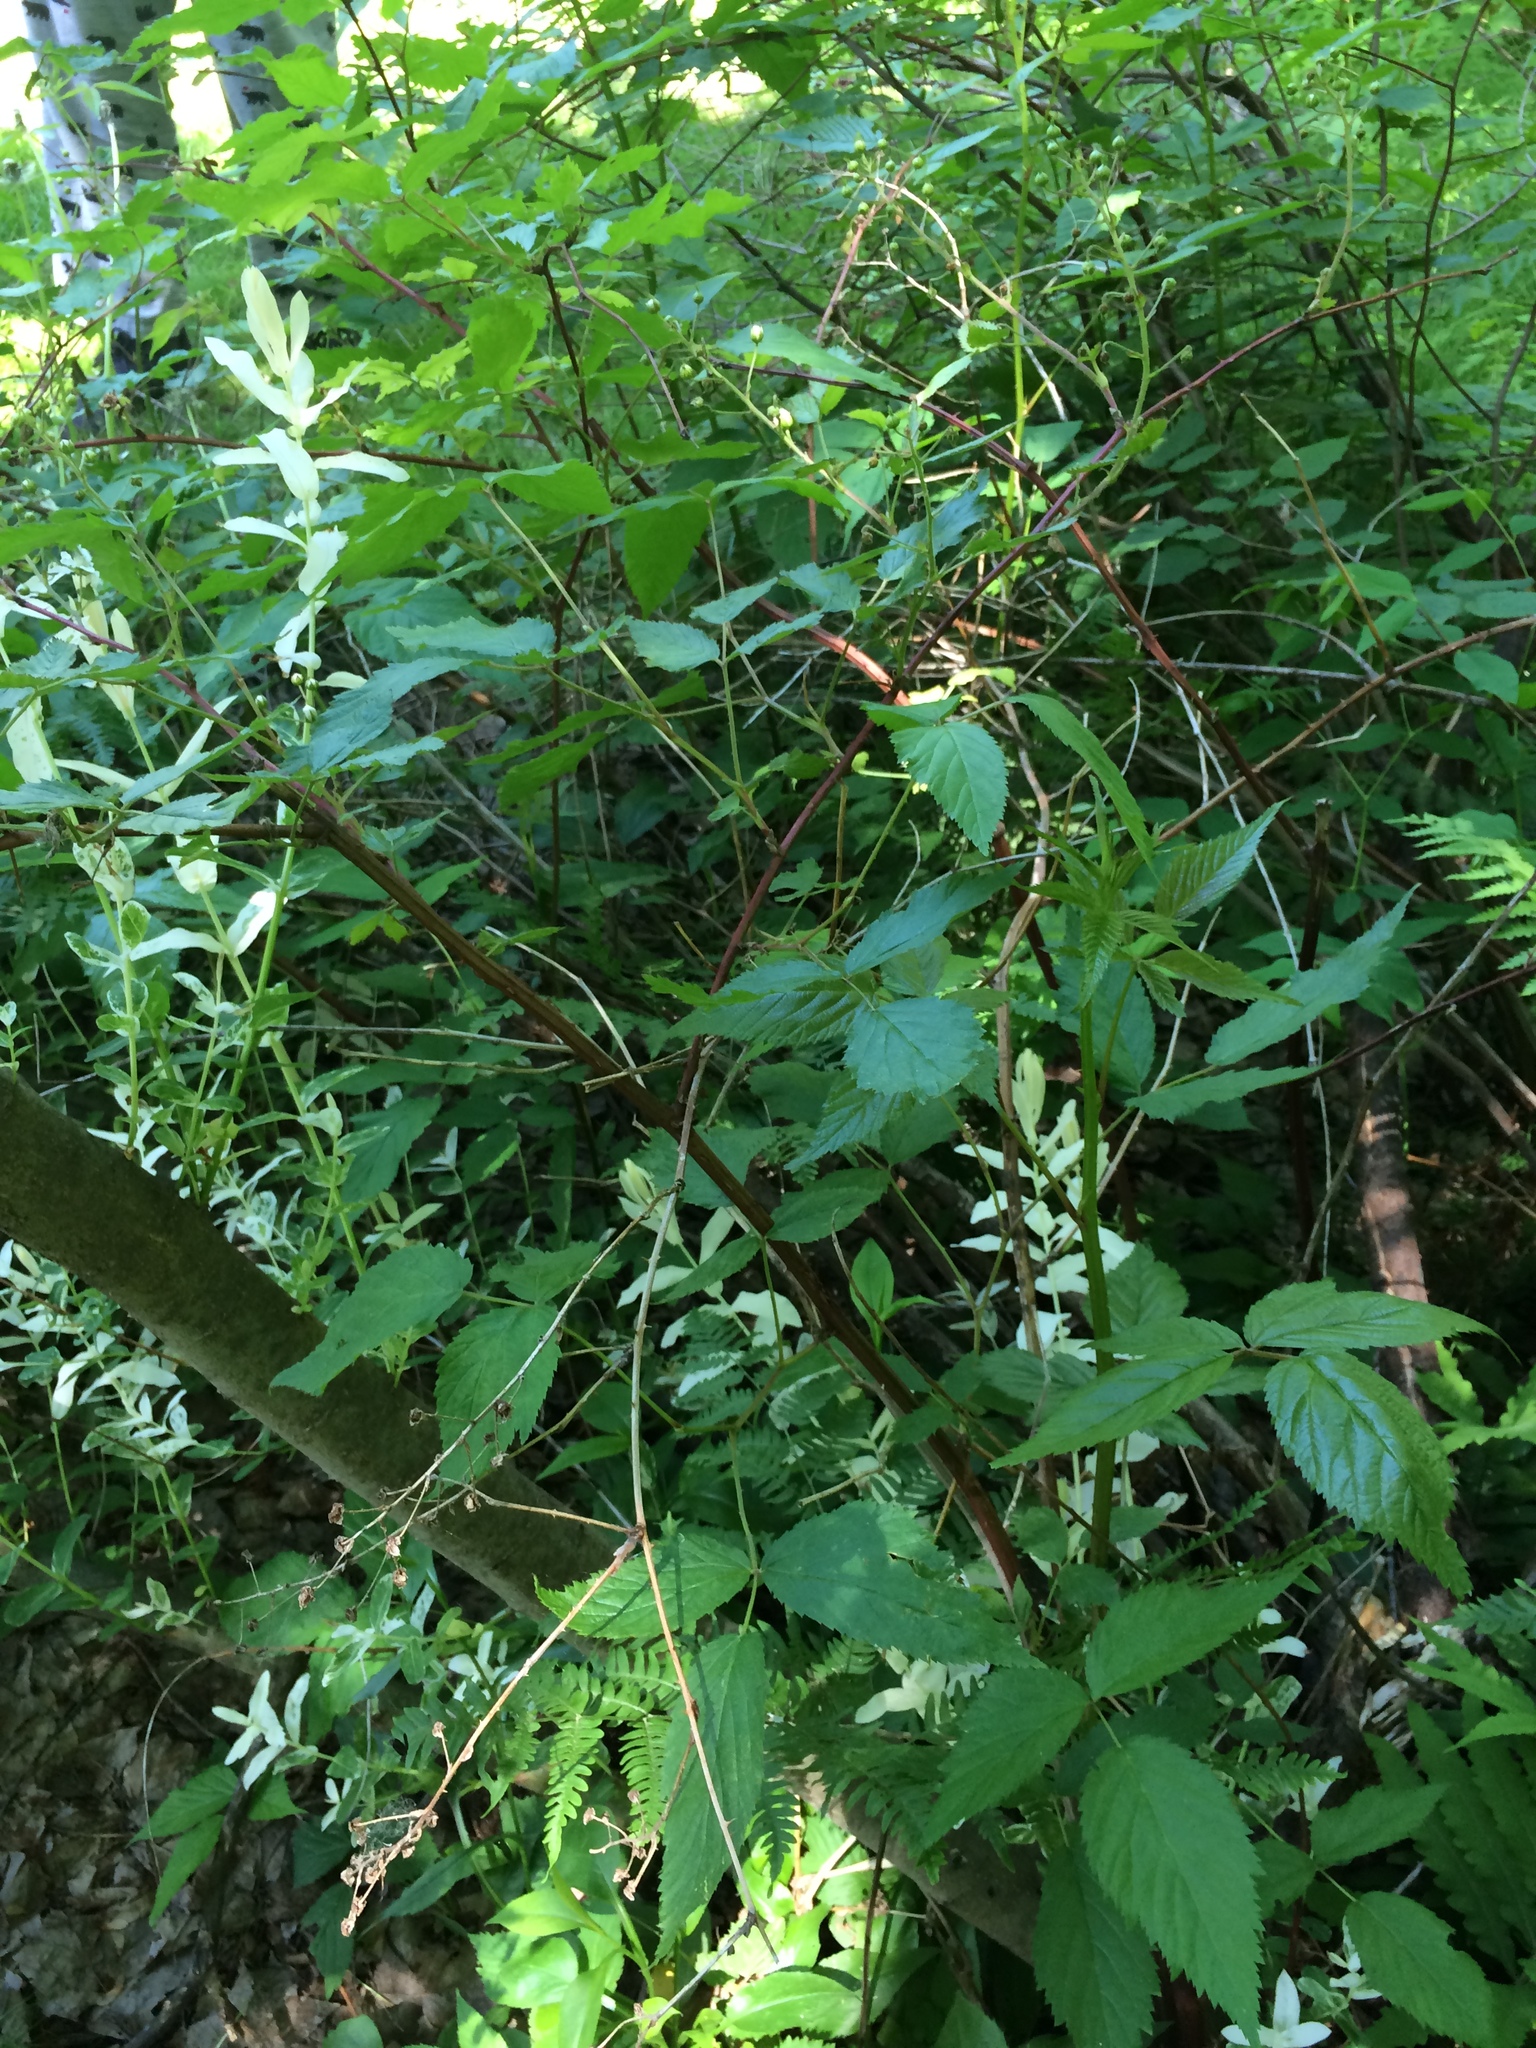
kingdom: Plantae
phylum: Tracheophyta
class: Magnoliopsida
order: Rosales
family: Rosaceae
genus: Rubus
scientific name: Rubus pensilvanicus
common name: Pennsylvania blackberry
